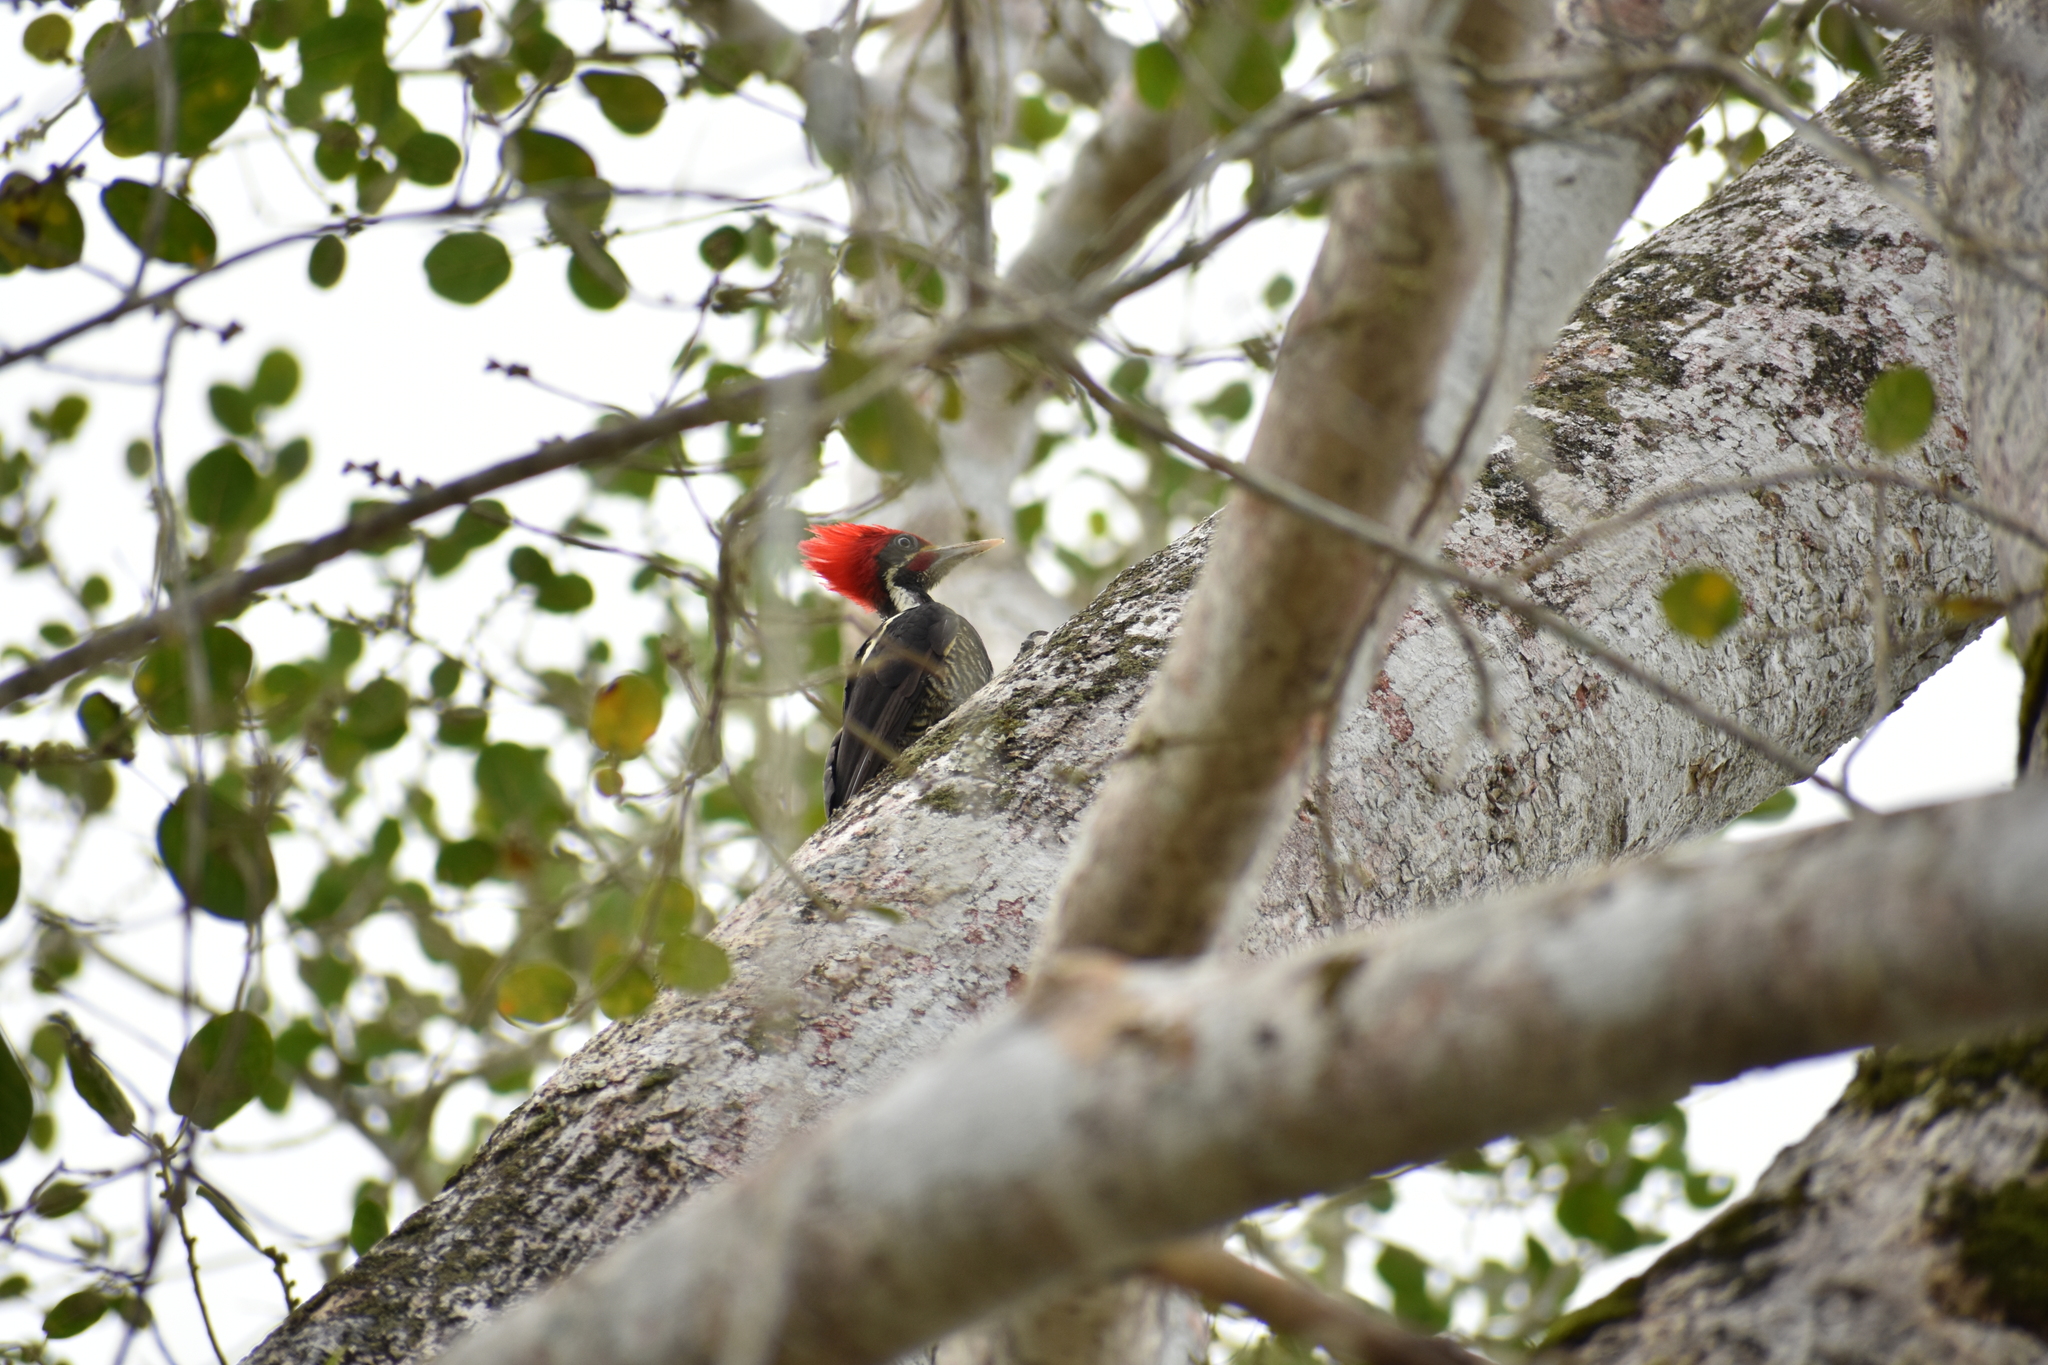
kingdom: Animalia
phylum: Chordata
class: Aves
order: Piciformes
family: Picidae
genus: Dryocopus
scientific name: Dryocopus lineatus
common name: Lineated woodpecker
